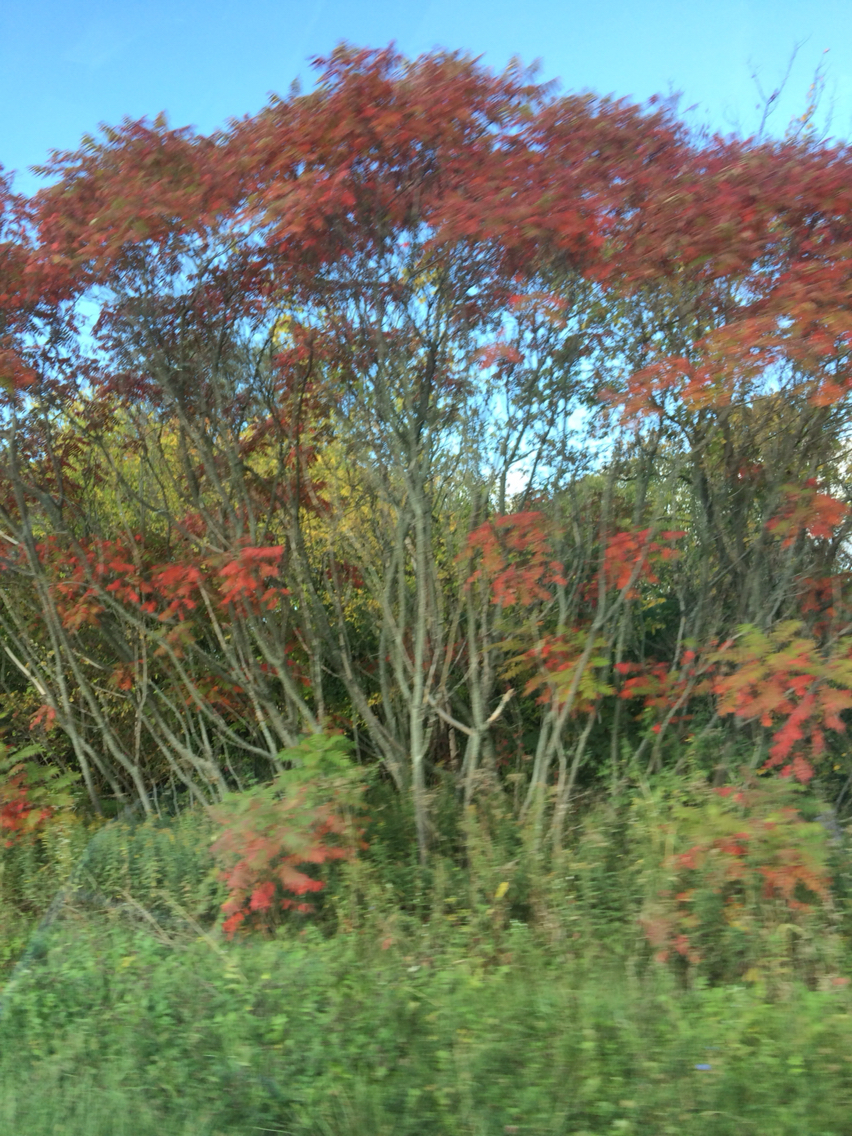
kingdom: Plantae
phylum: Tracheophyta
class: Magnoliopsida
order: Sapindales
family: Anacardiaceae
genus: Rhus
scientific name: Rhus typhina
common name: Staghorn sumac
